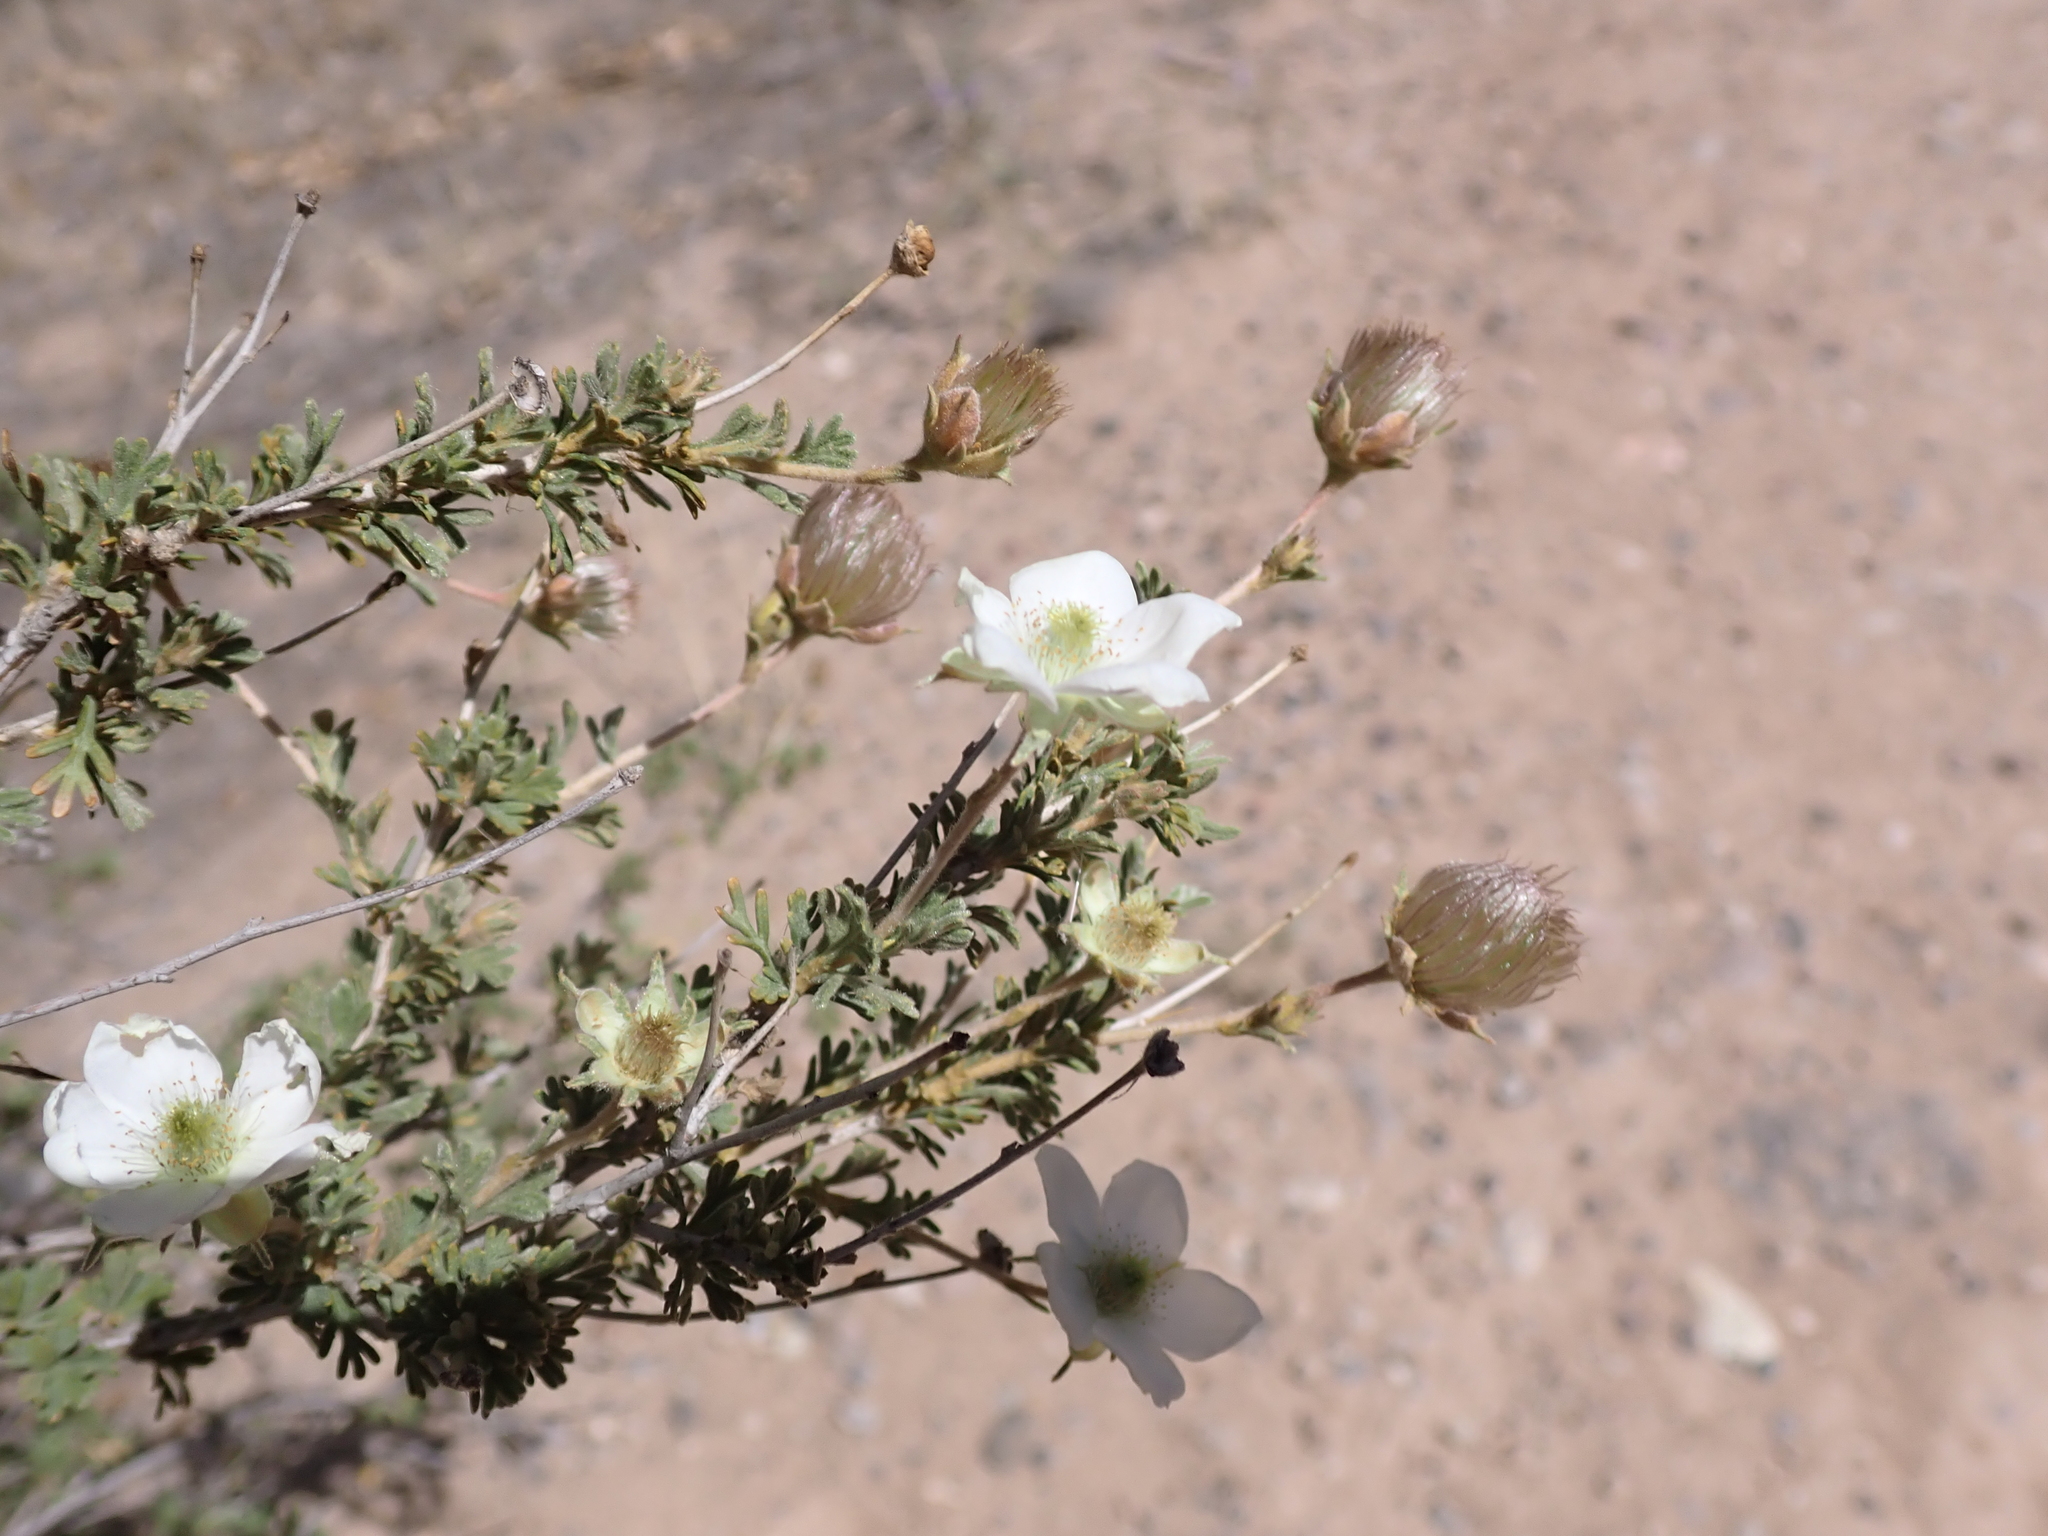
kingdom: Plantae
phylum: Tracheophyta
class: Magnoliopsida
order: Rosales
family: Rosaceae
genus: Fallugia
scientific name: Fallugia paradoxa
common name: Apache-plume
